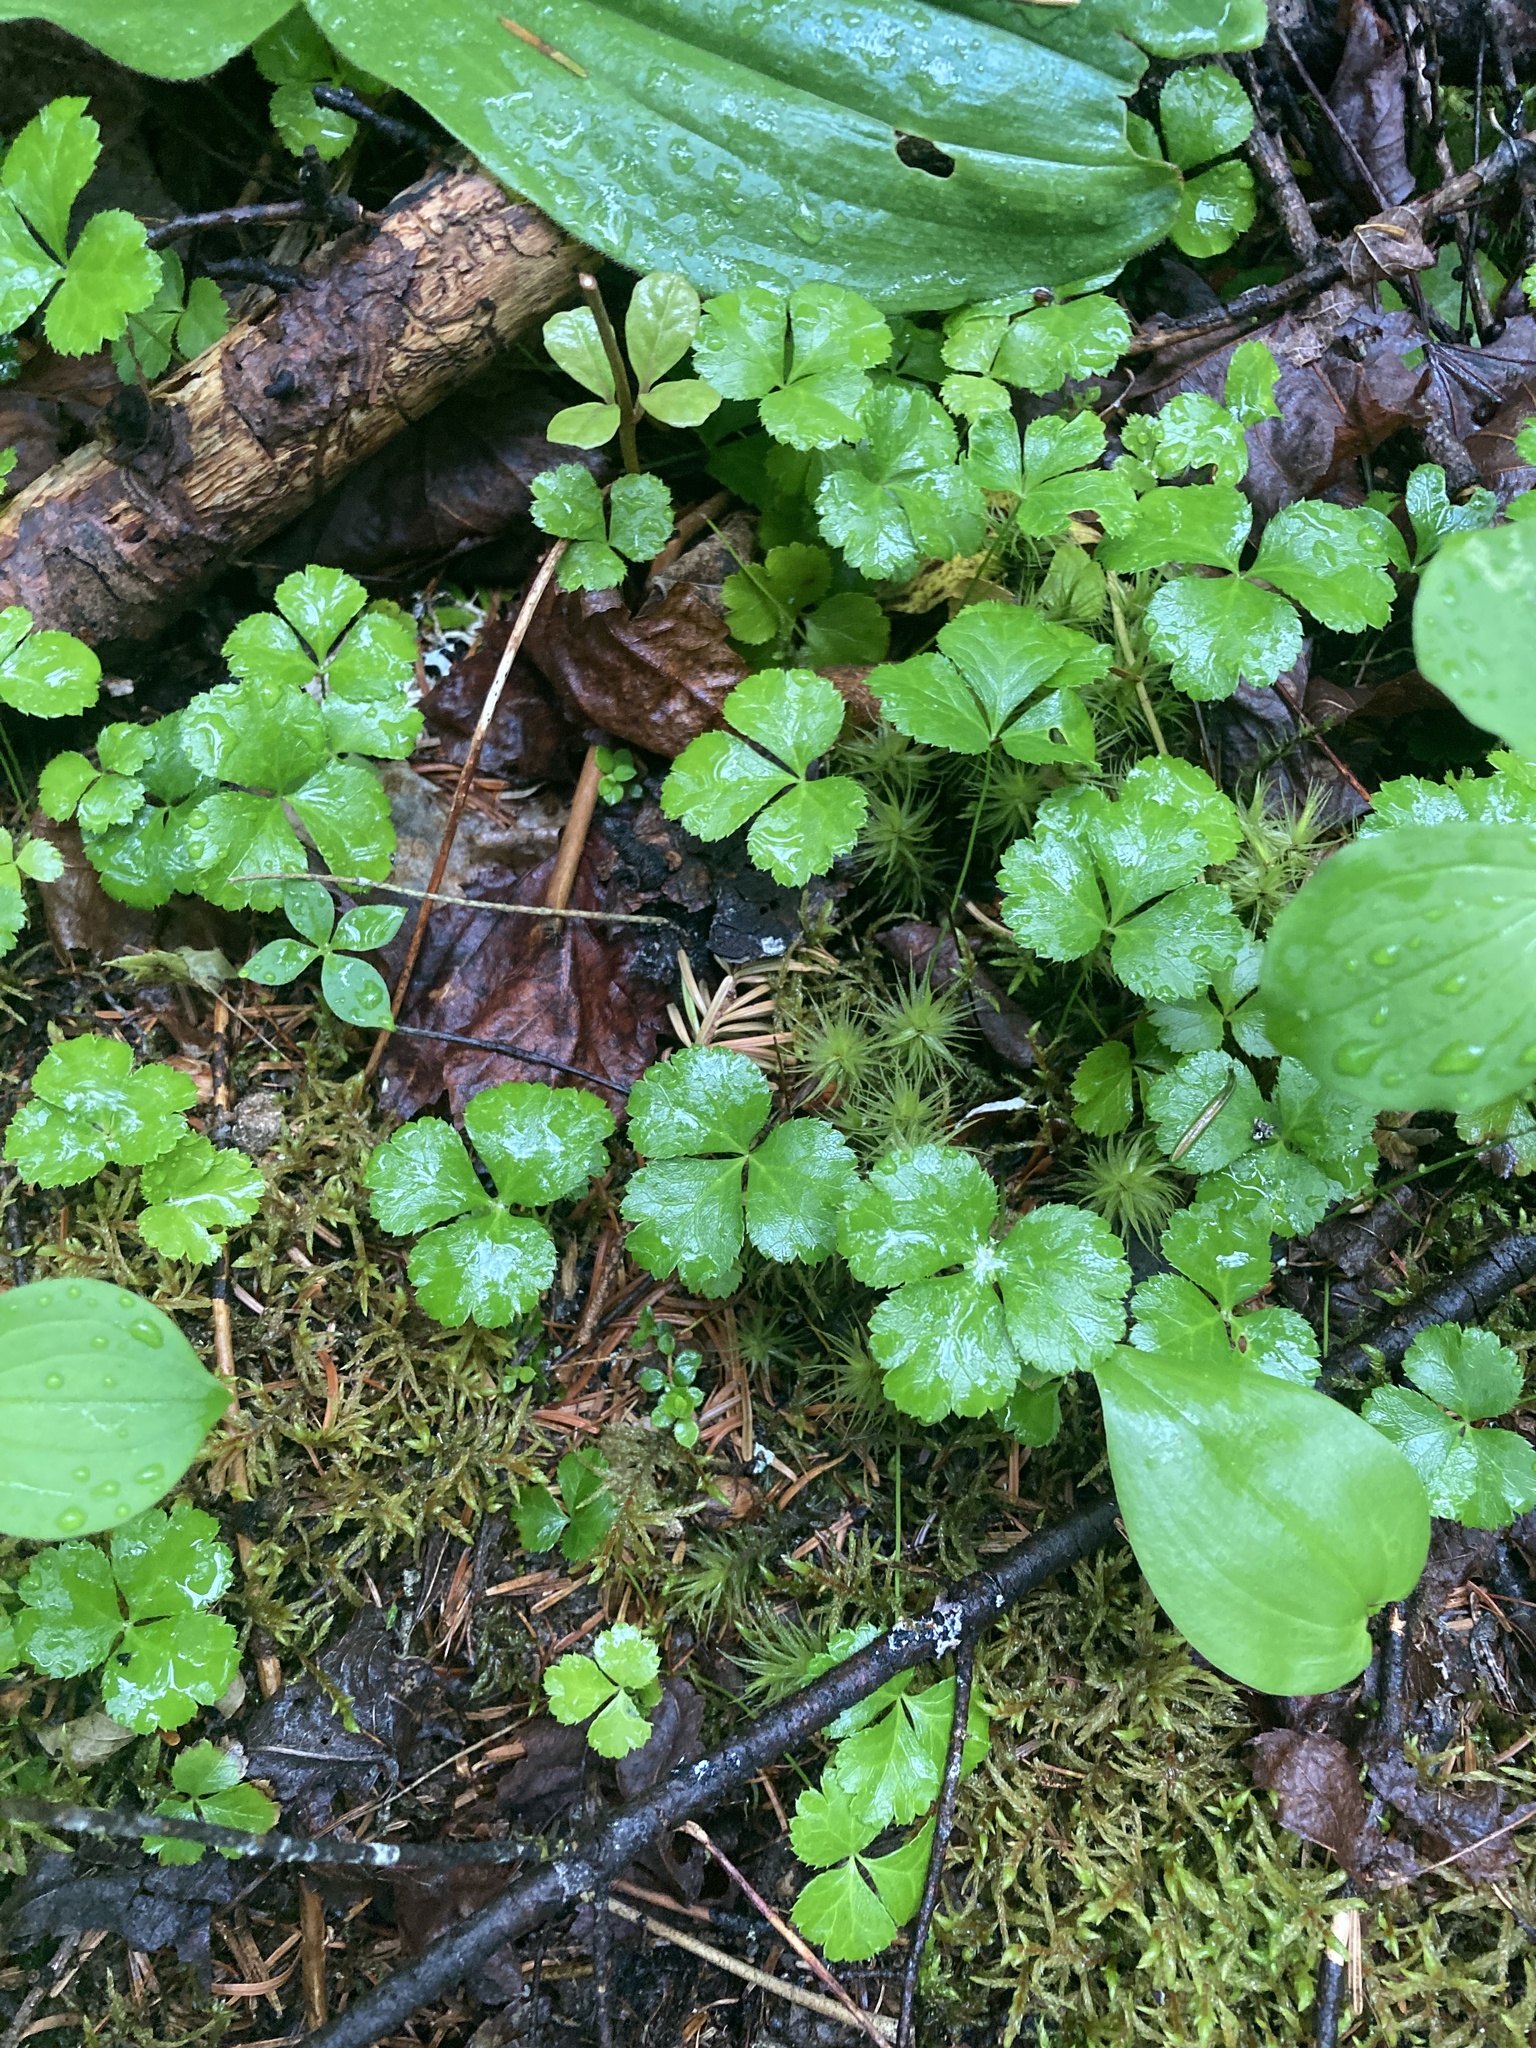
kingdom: Plantae
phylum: Tracheophyta
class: Magnoliopsida
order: Ranunculales
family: Ranunculaceae
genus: Coptis
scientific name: Coptis trifolia
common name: Canker-root
